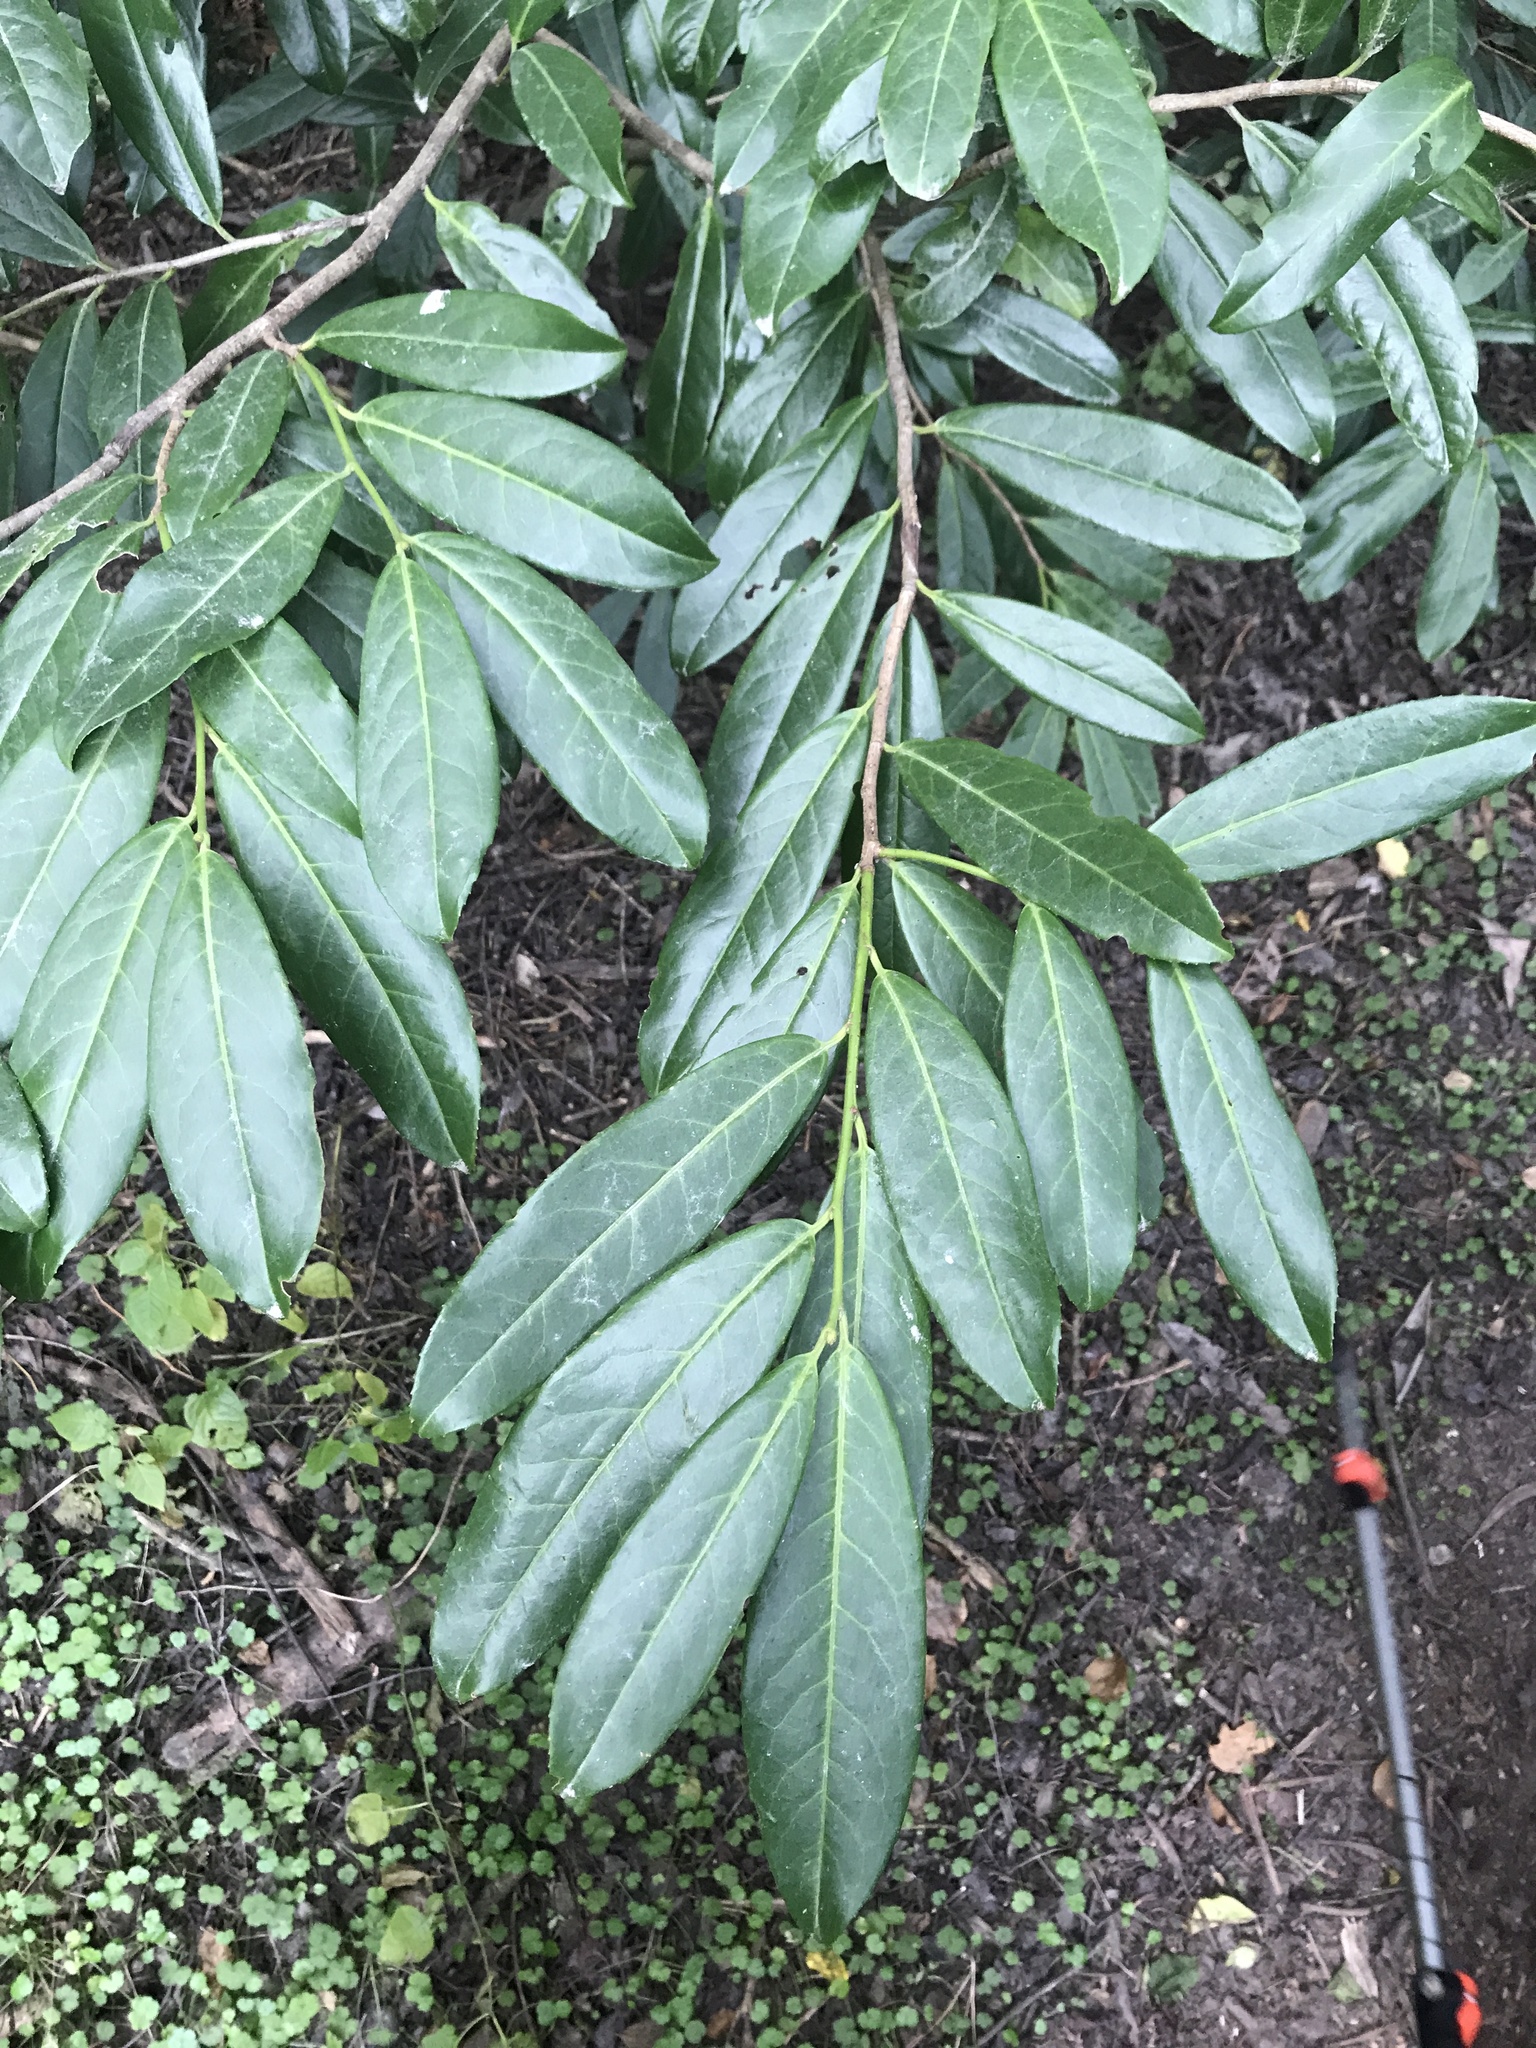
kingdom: Plantae
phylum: Tracheophyta
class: Magnoliopsida
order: Rosales
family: Rosaceae
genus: Prunus
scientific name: Prunus laurocerasus
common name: Cherry laurel
